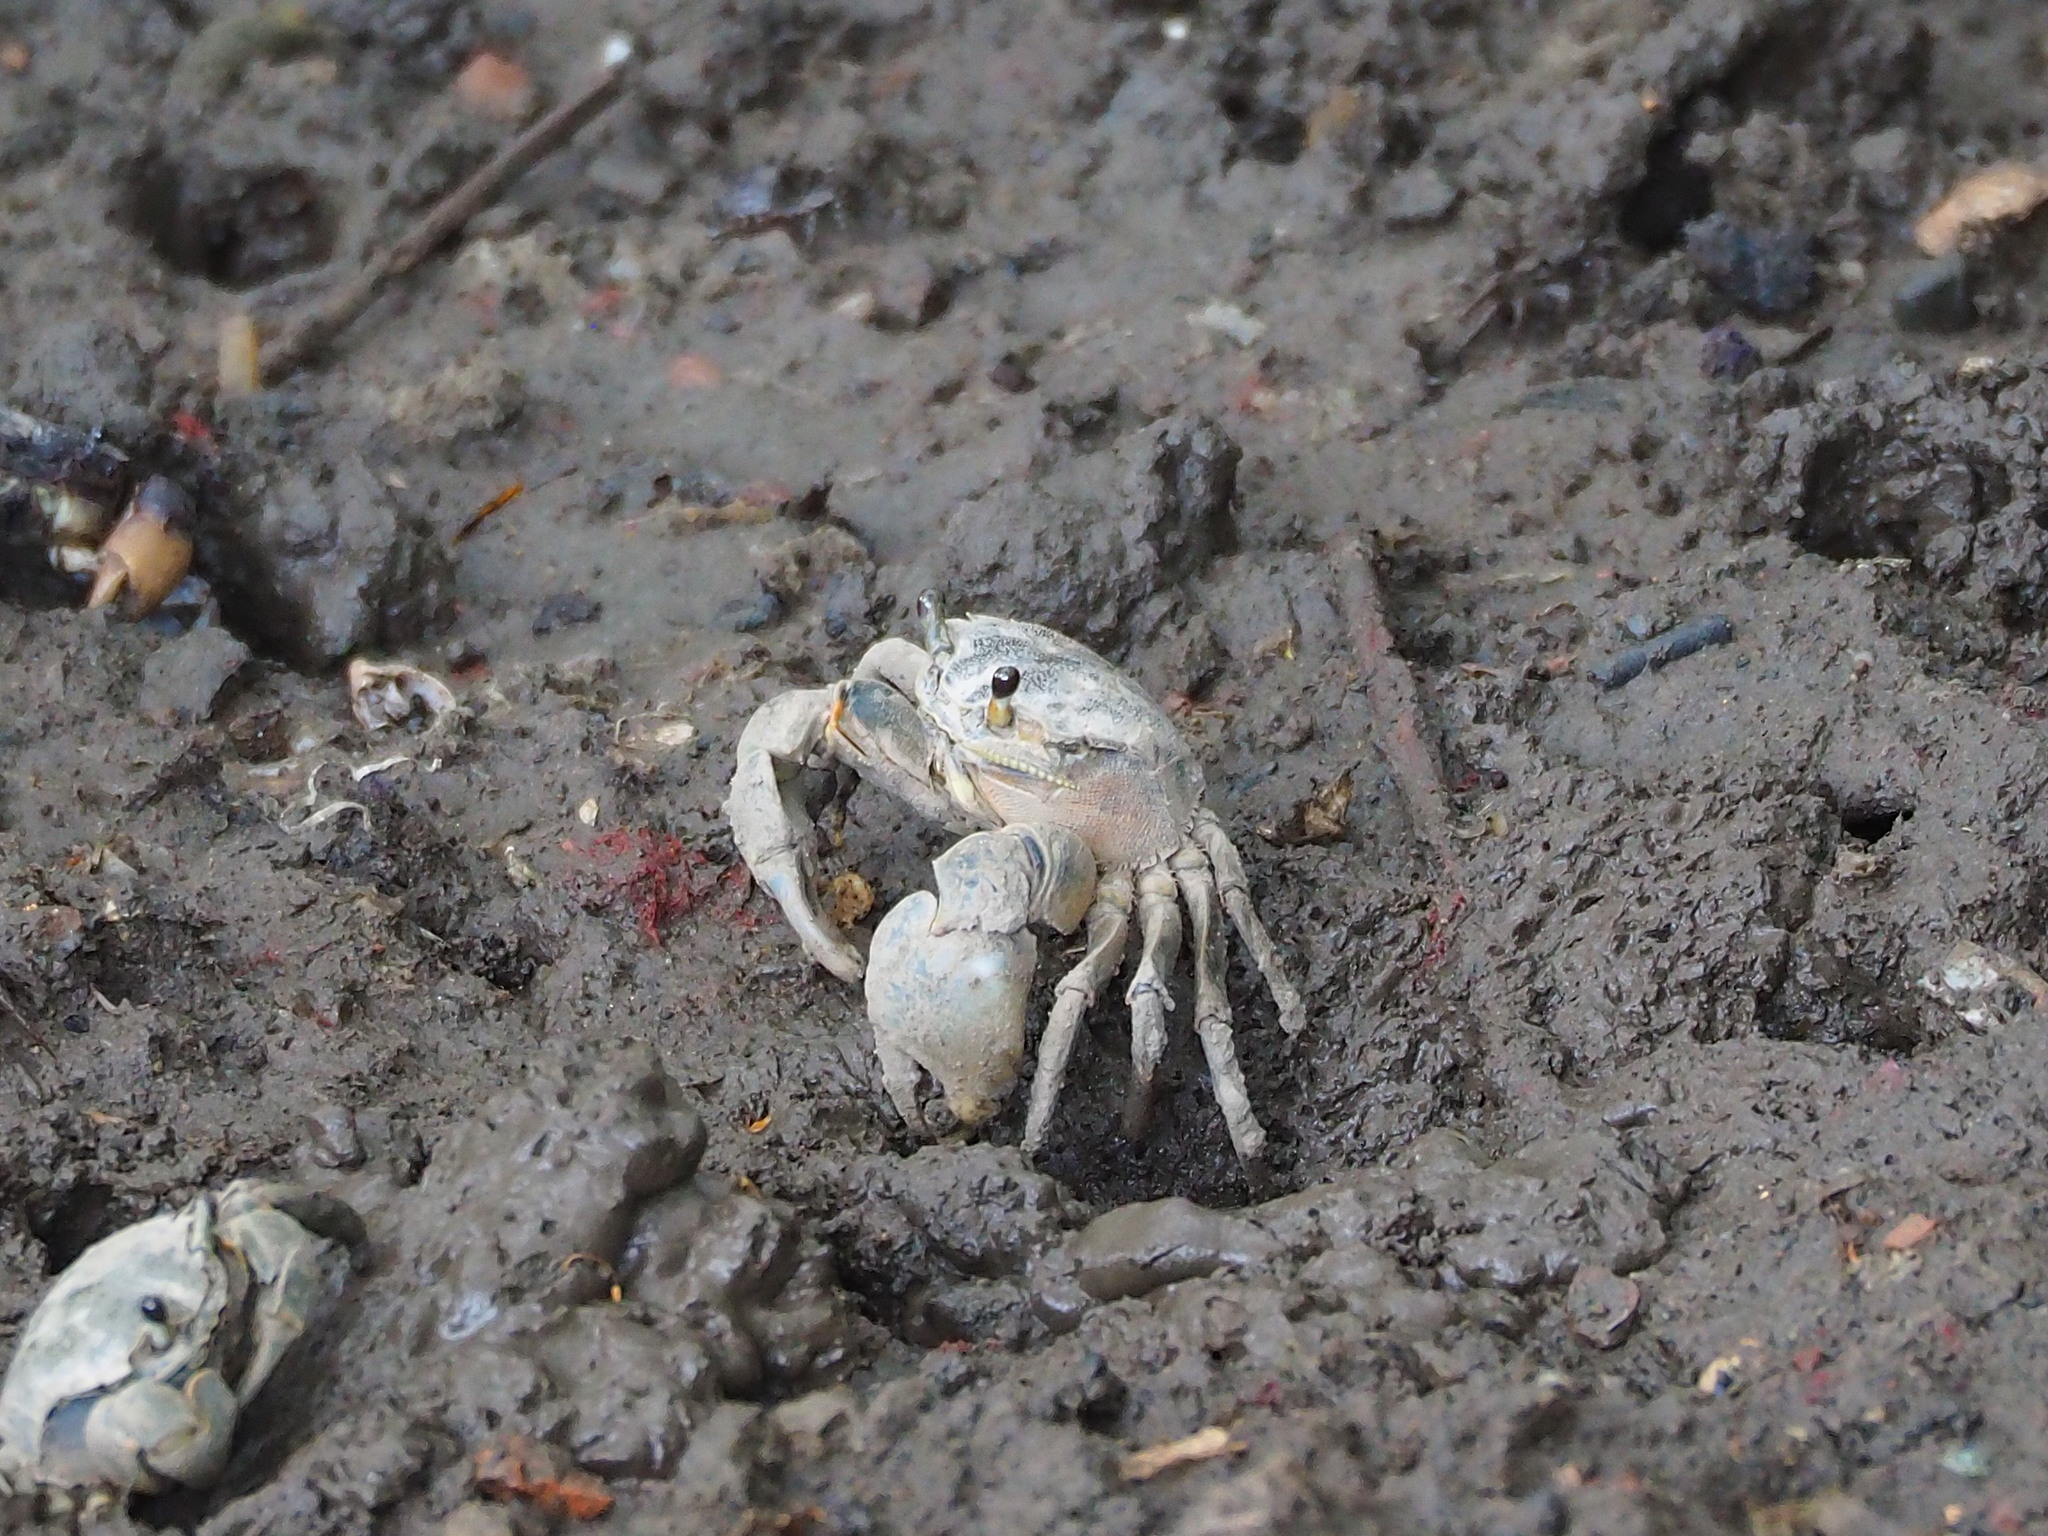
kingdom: Animalia
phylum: Arthropoda
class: Malacostraca
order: Decapoda
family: Varunidae
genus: Helice
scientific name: Helice formosensis
